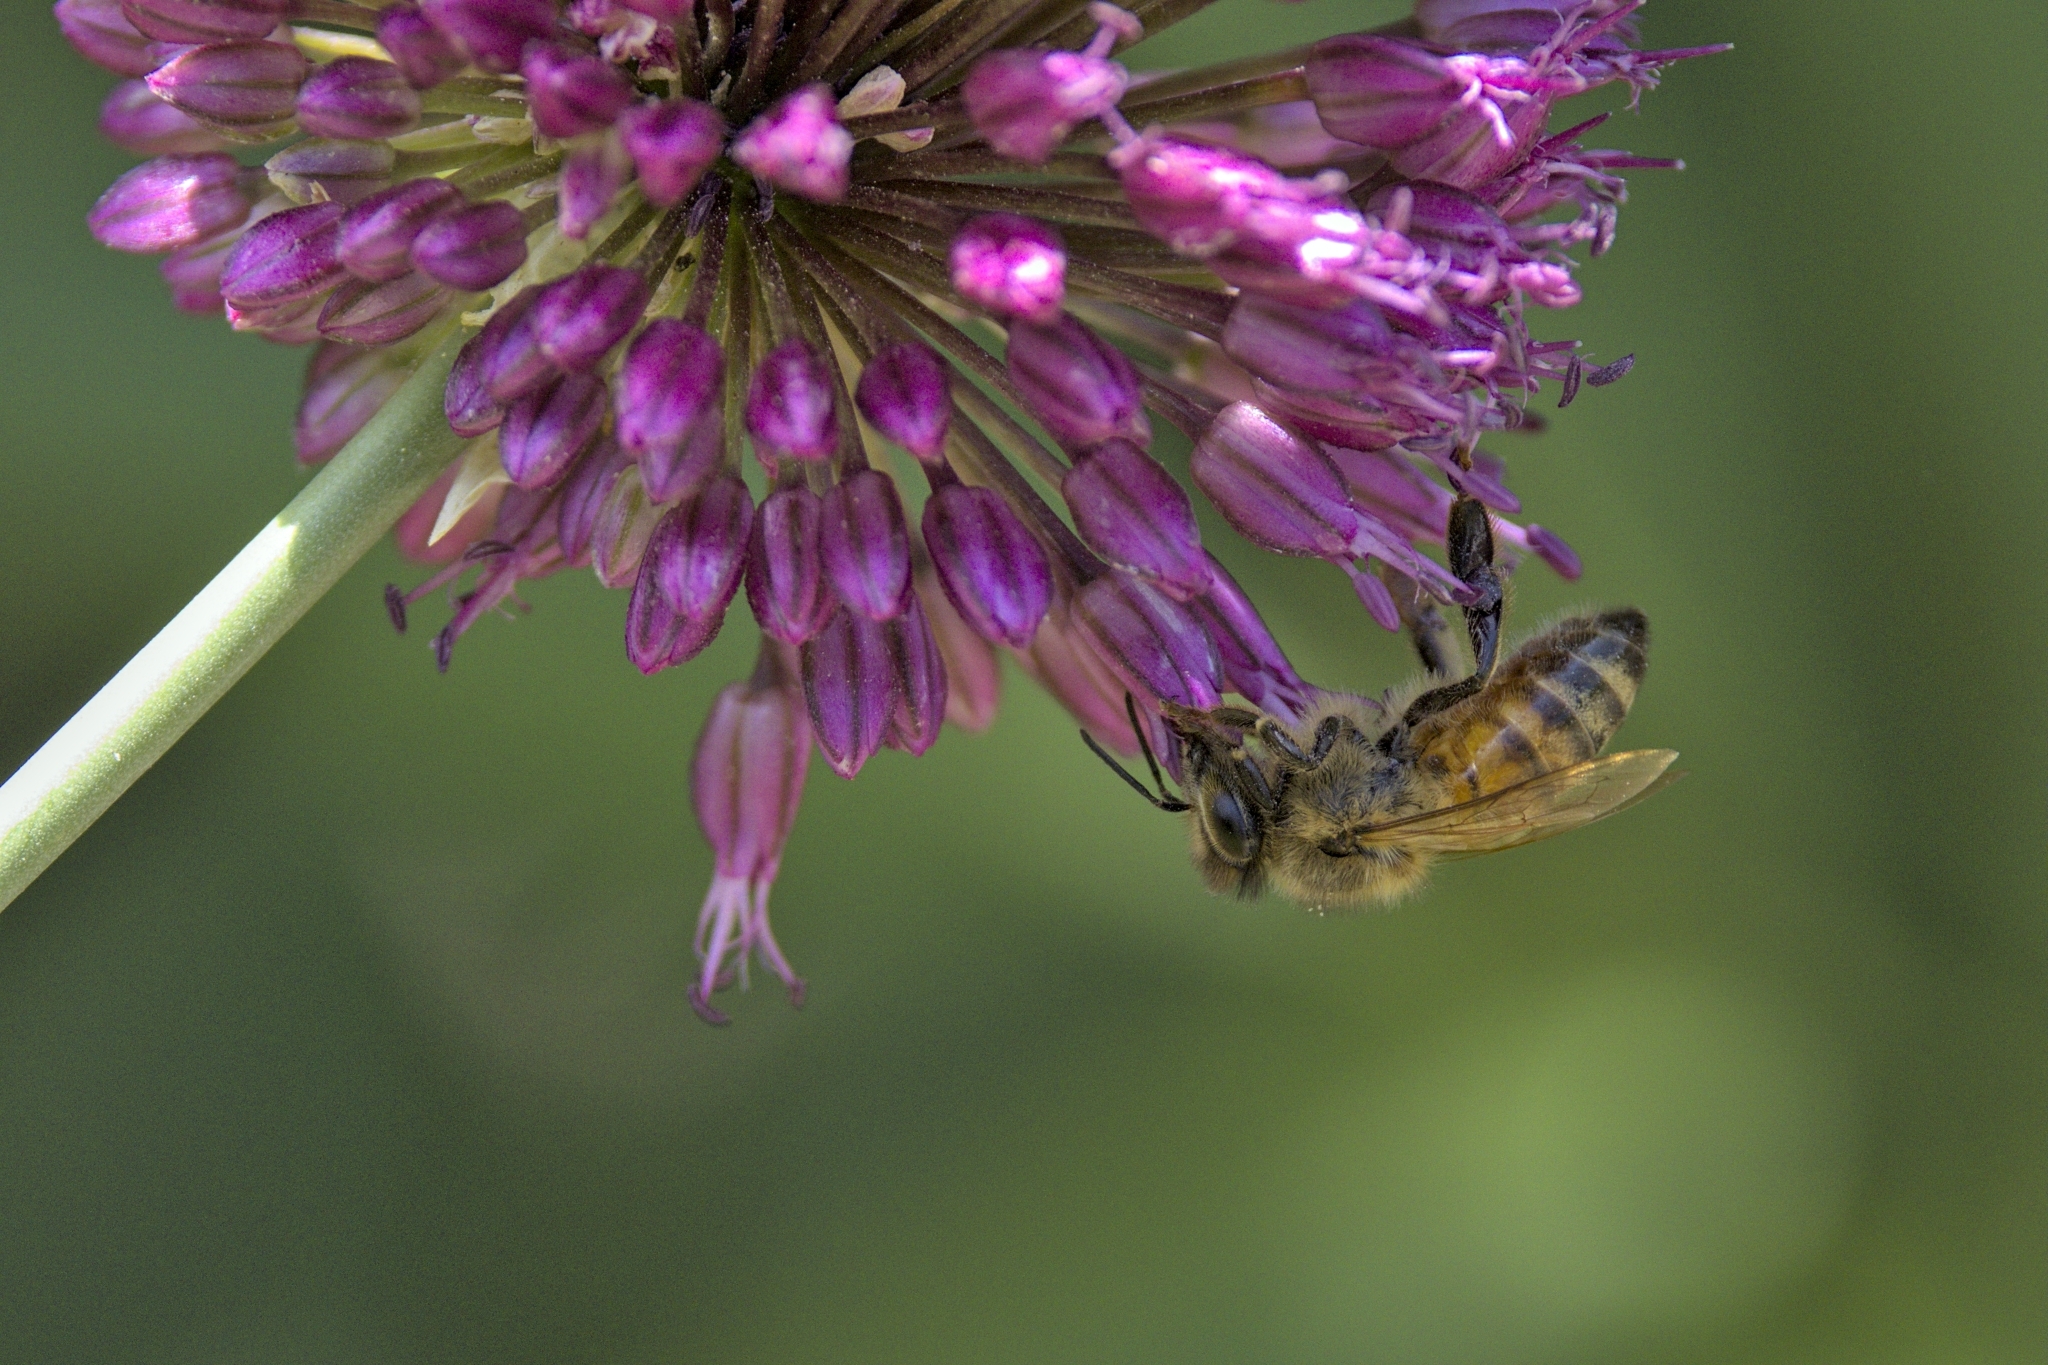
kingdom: Animalia
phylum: Arthropoda
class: Insecta
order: Hymenoptera
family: Apidae
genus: Apis
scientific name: Apis mellifera
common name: Honey bee
